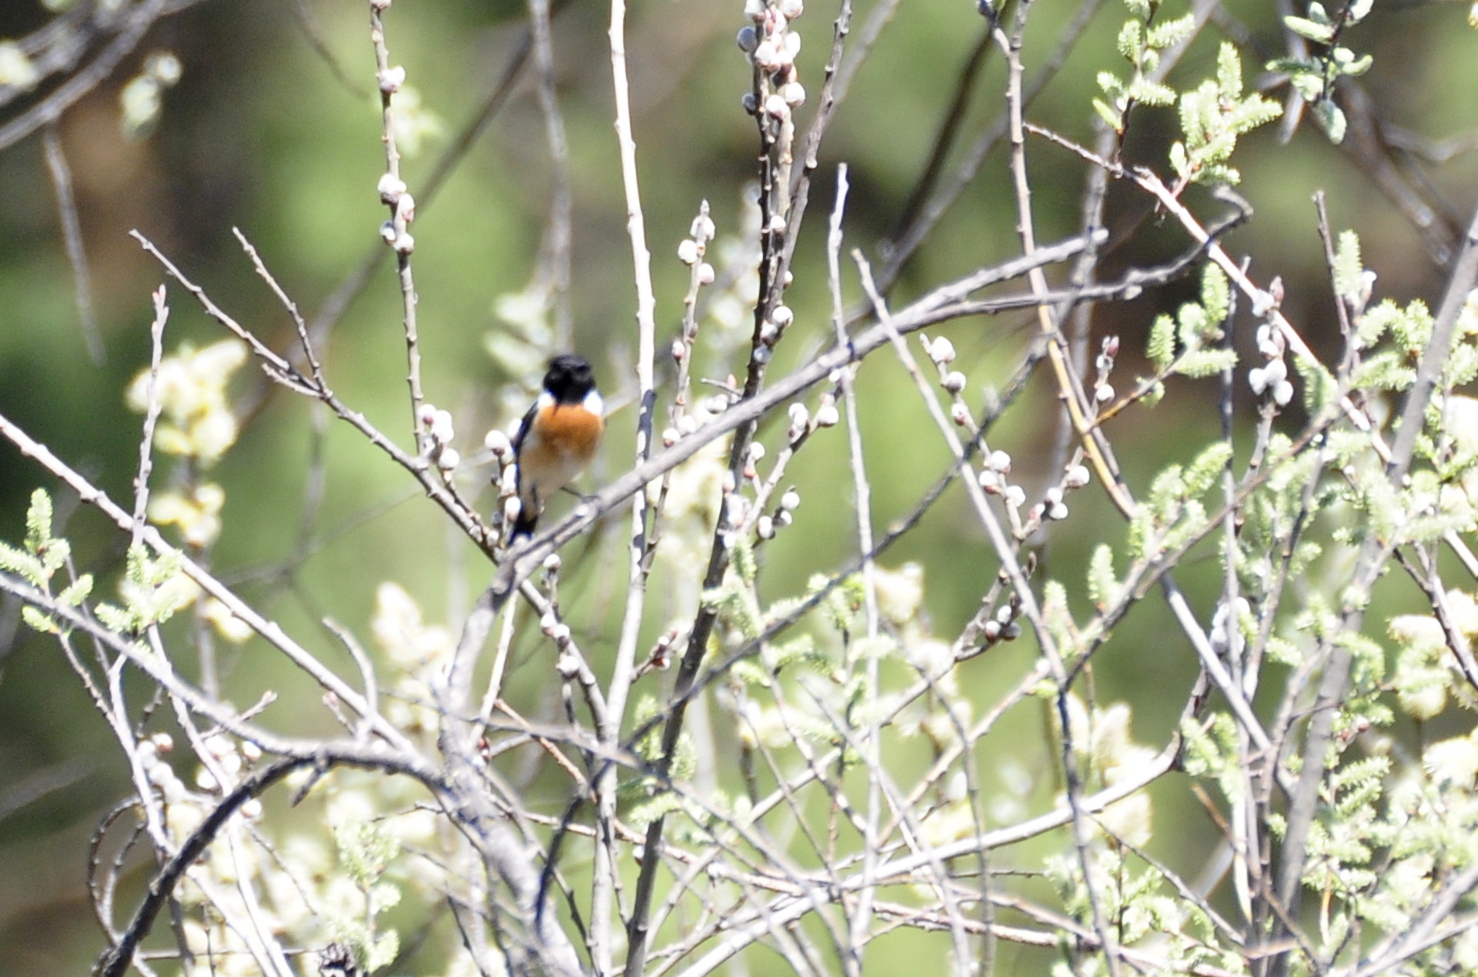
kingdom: Animalia
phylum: Chordata
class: Aves
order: Passeriformes
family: Muscicapidae
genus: Saxicola
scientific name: Saxicola maurus
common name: Siberian stonechat
